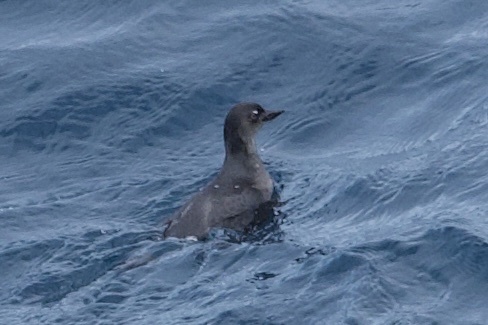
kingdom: Animalia
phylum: Chordata
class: Aves
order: Charadriiformes
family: Alcidae
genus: Ptychoramphus
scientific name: Ptychoramphus aleuticus
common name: Cassin's auklet
